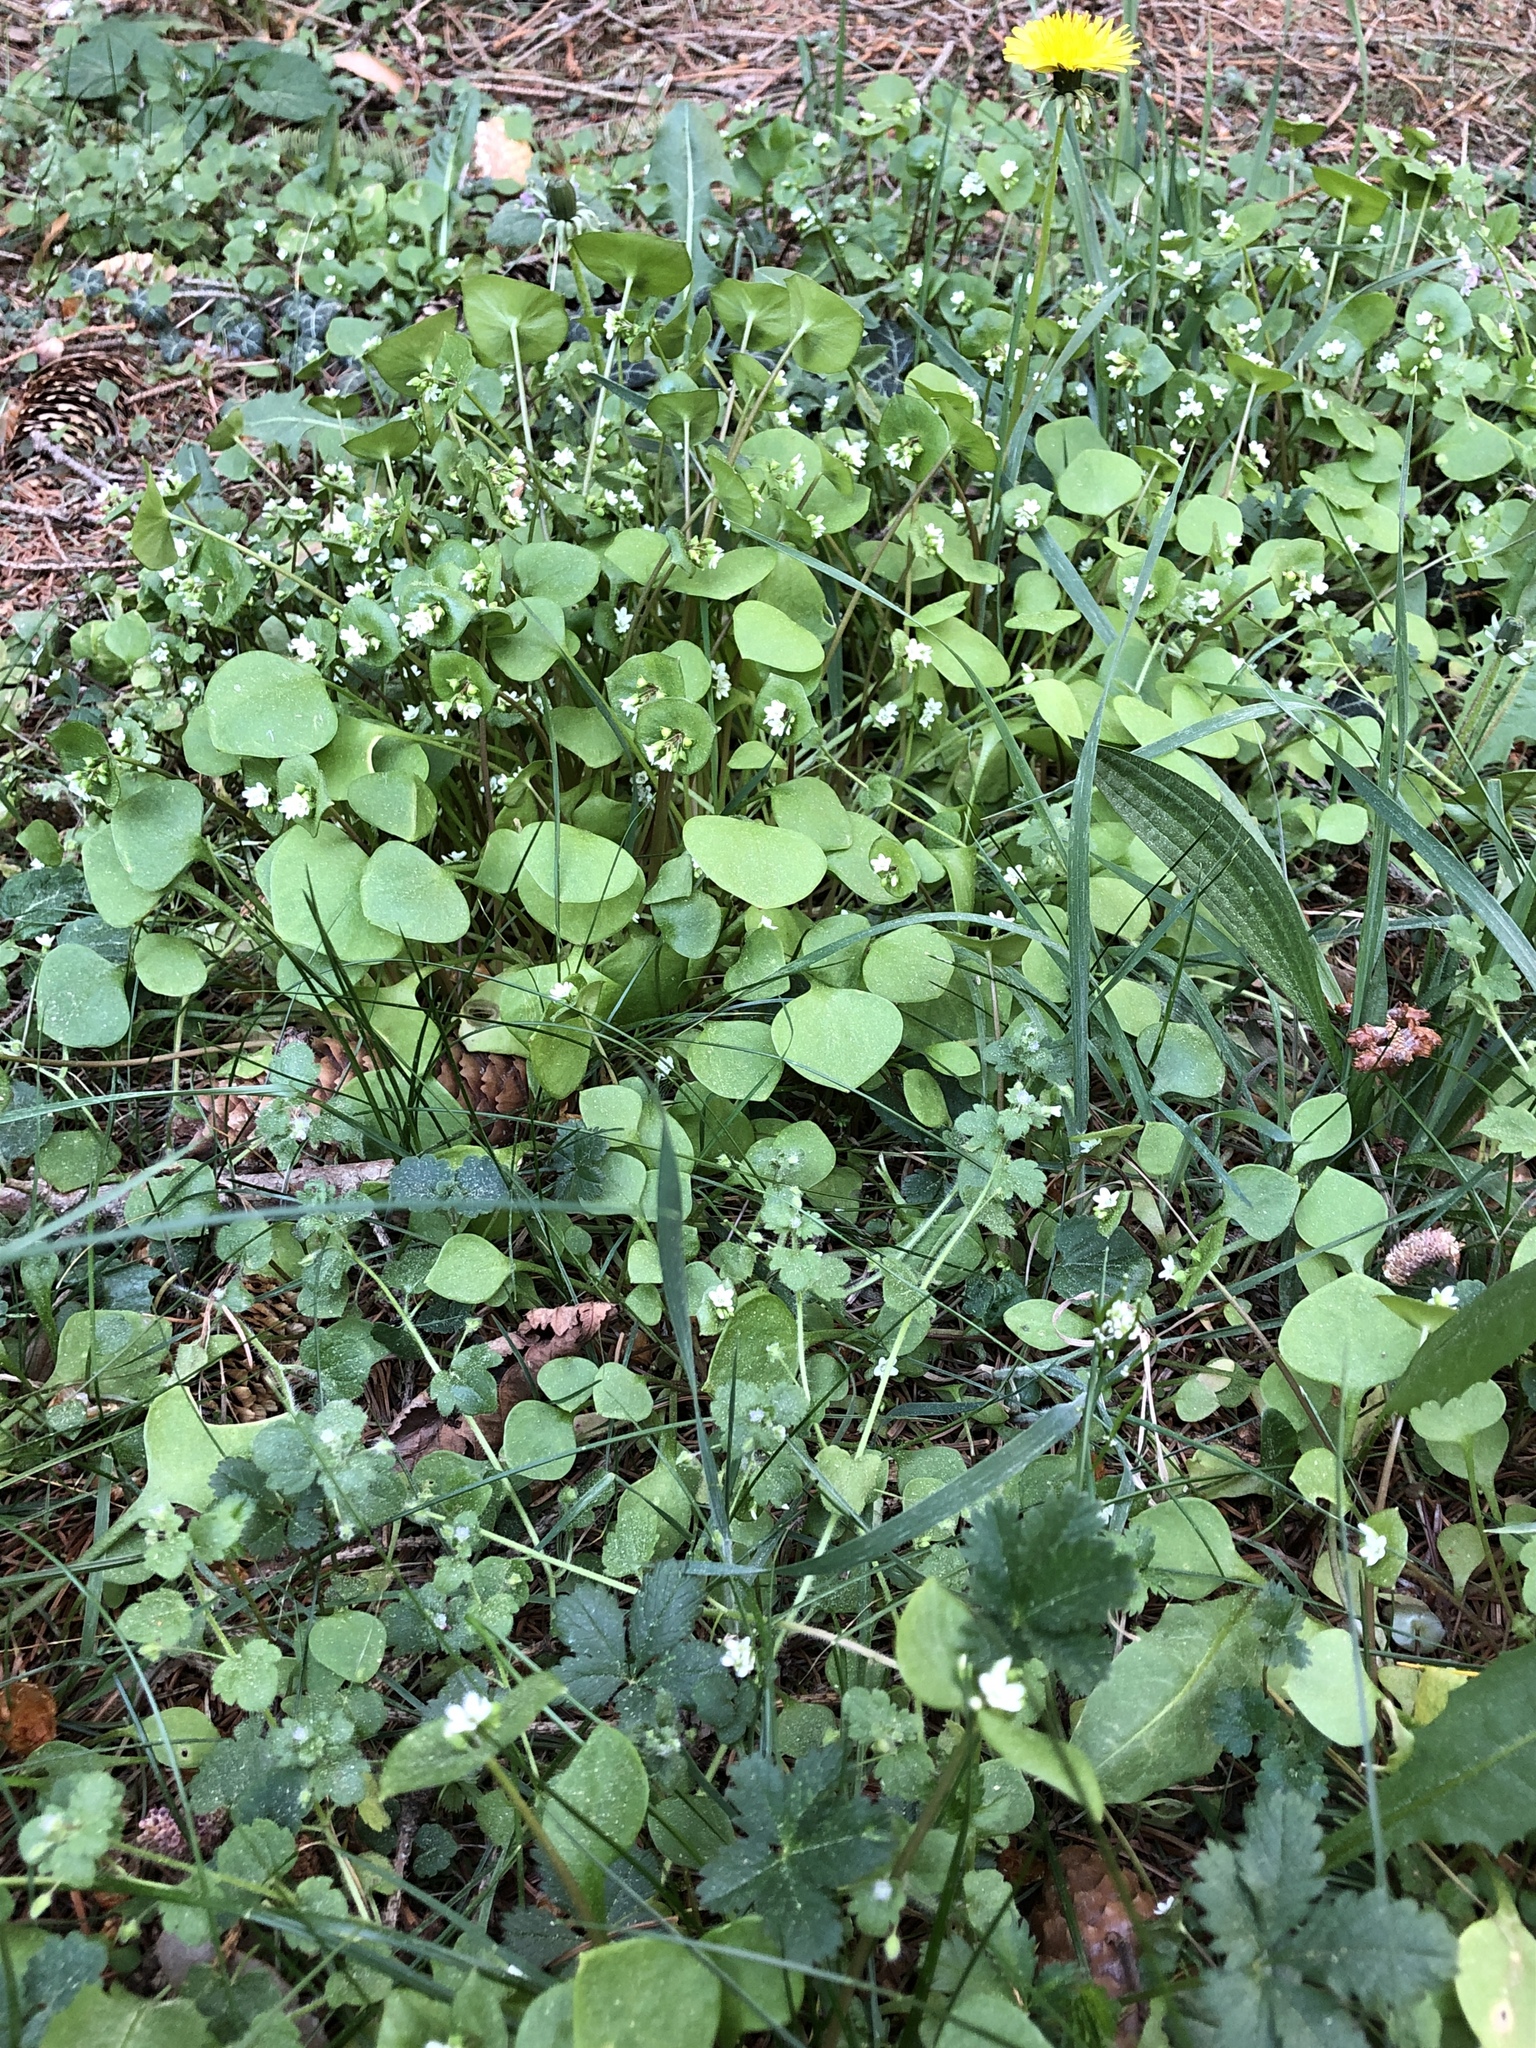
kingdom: Plantae
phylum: Tracheophyta
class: Magnoliopsida
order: Caryophyllales
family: Montiaceae
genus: Claytonia
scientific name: Claytonia perfoliata
